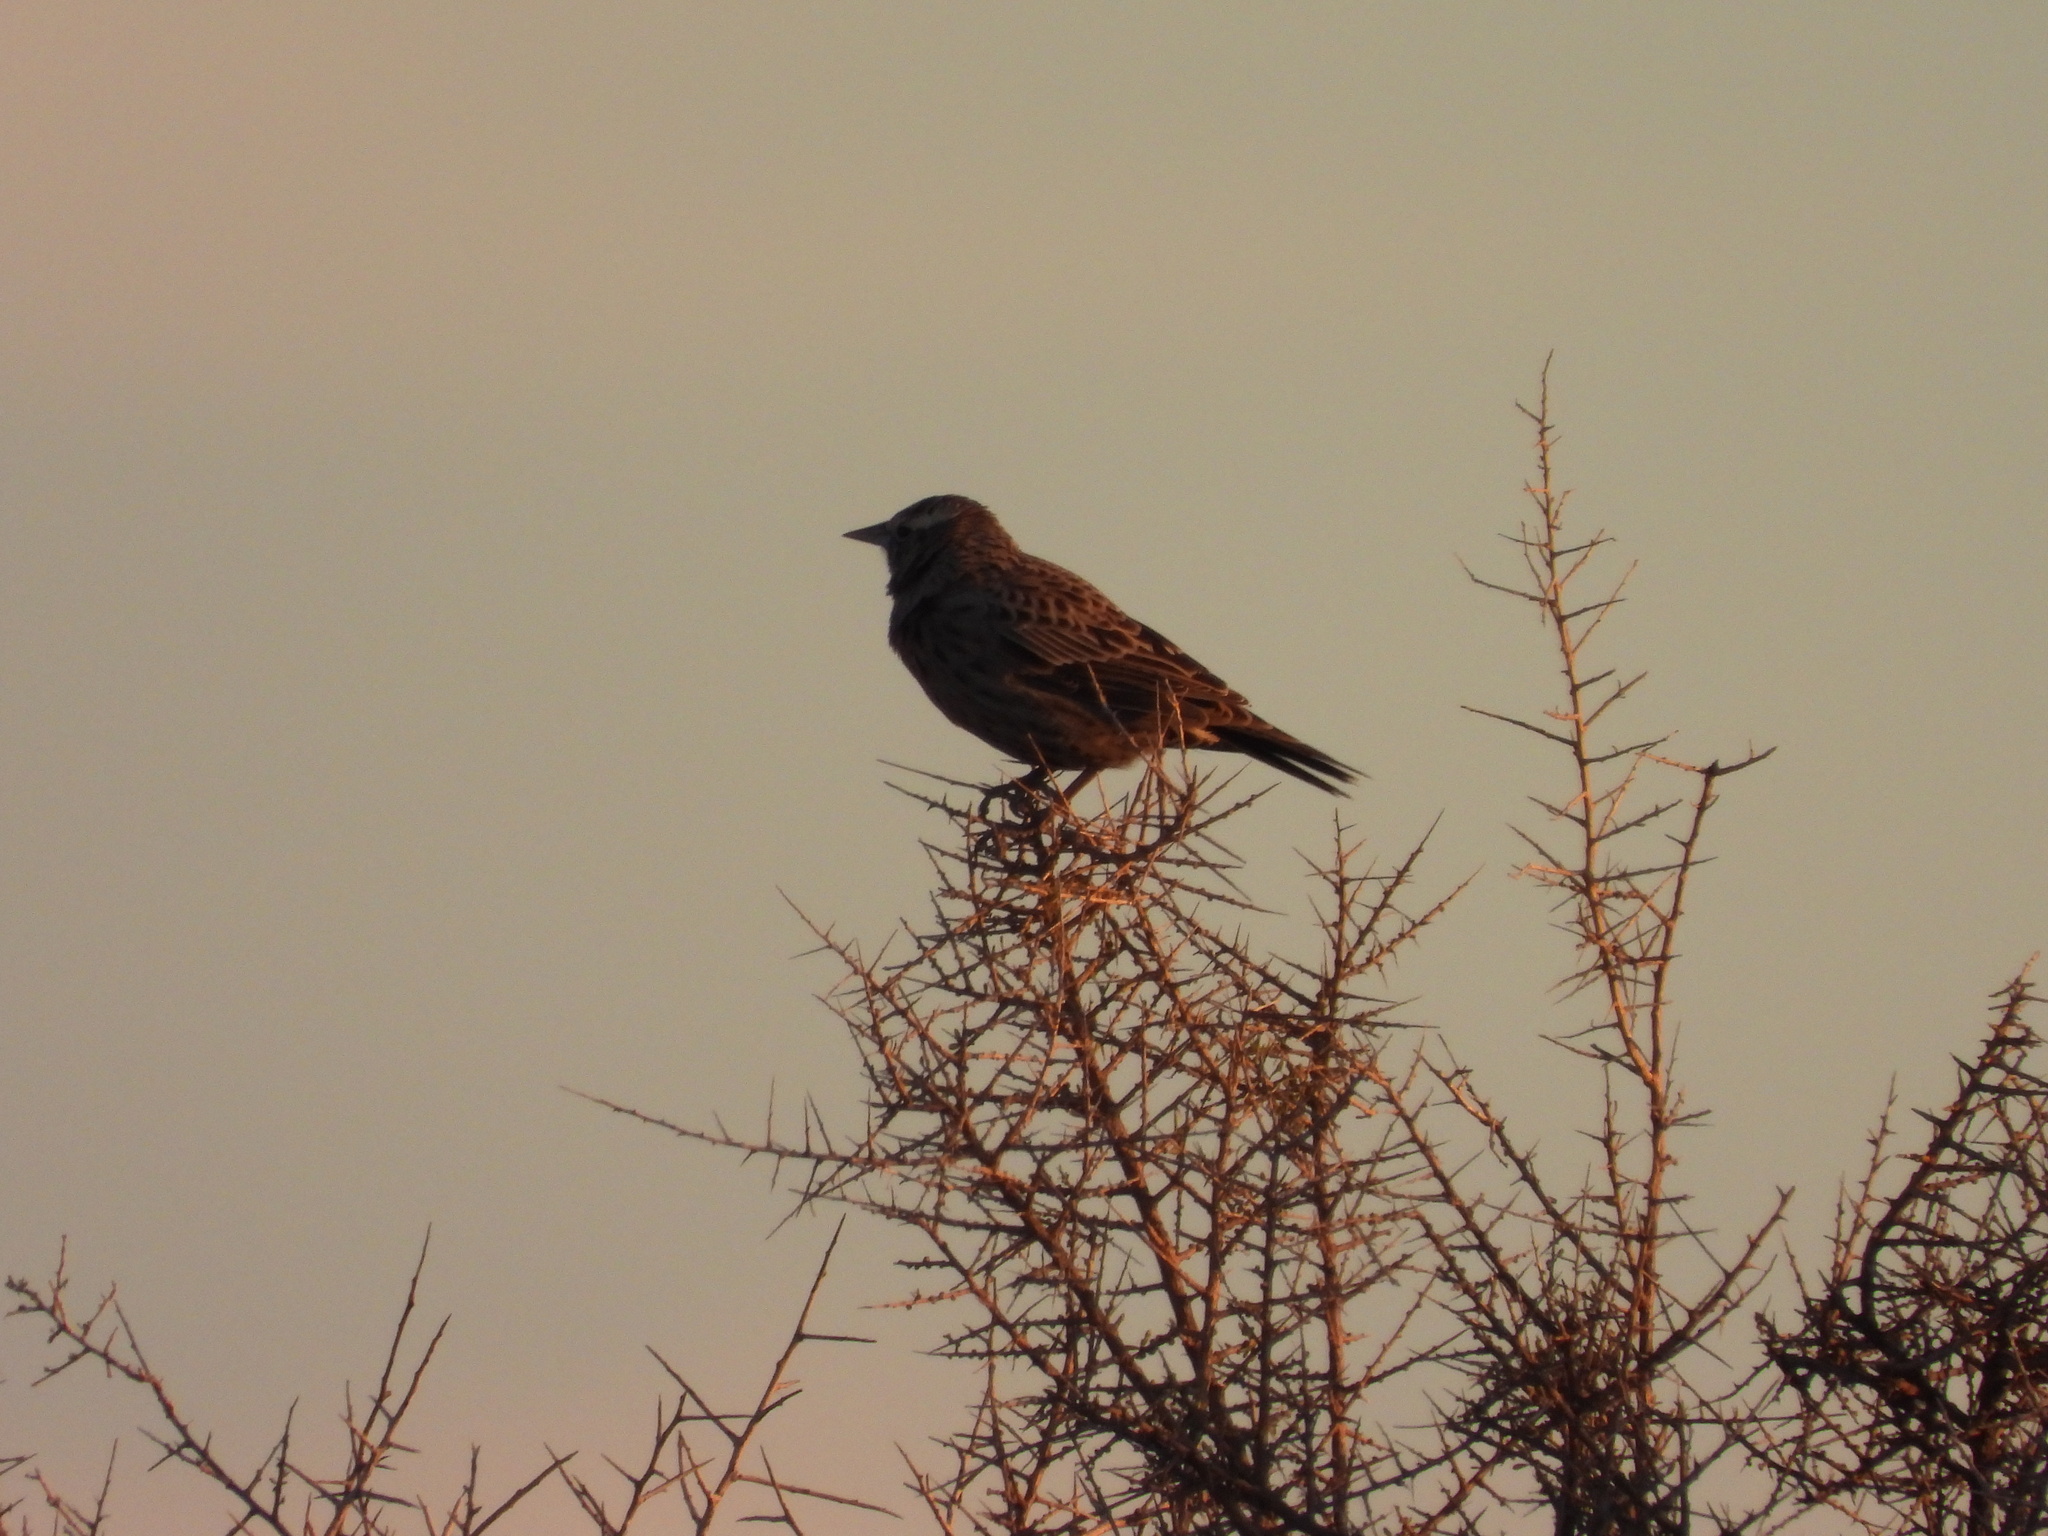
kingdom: Animalia
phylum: Chordata
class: Aves
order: Passeriformes
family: Icteridae
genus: Sturnella
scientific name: Sturnella loyca
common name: Long-tailed meadowlark
